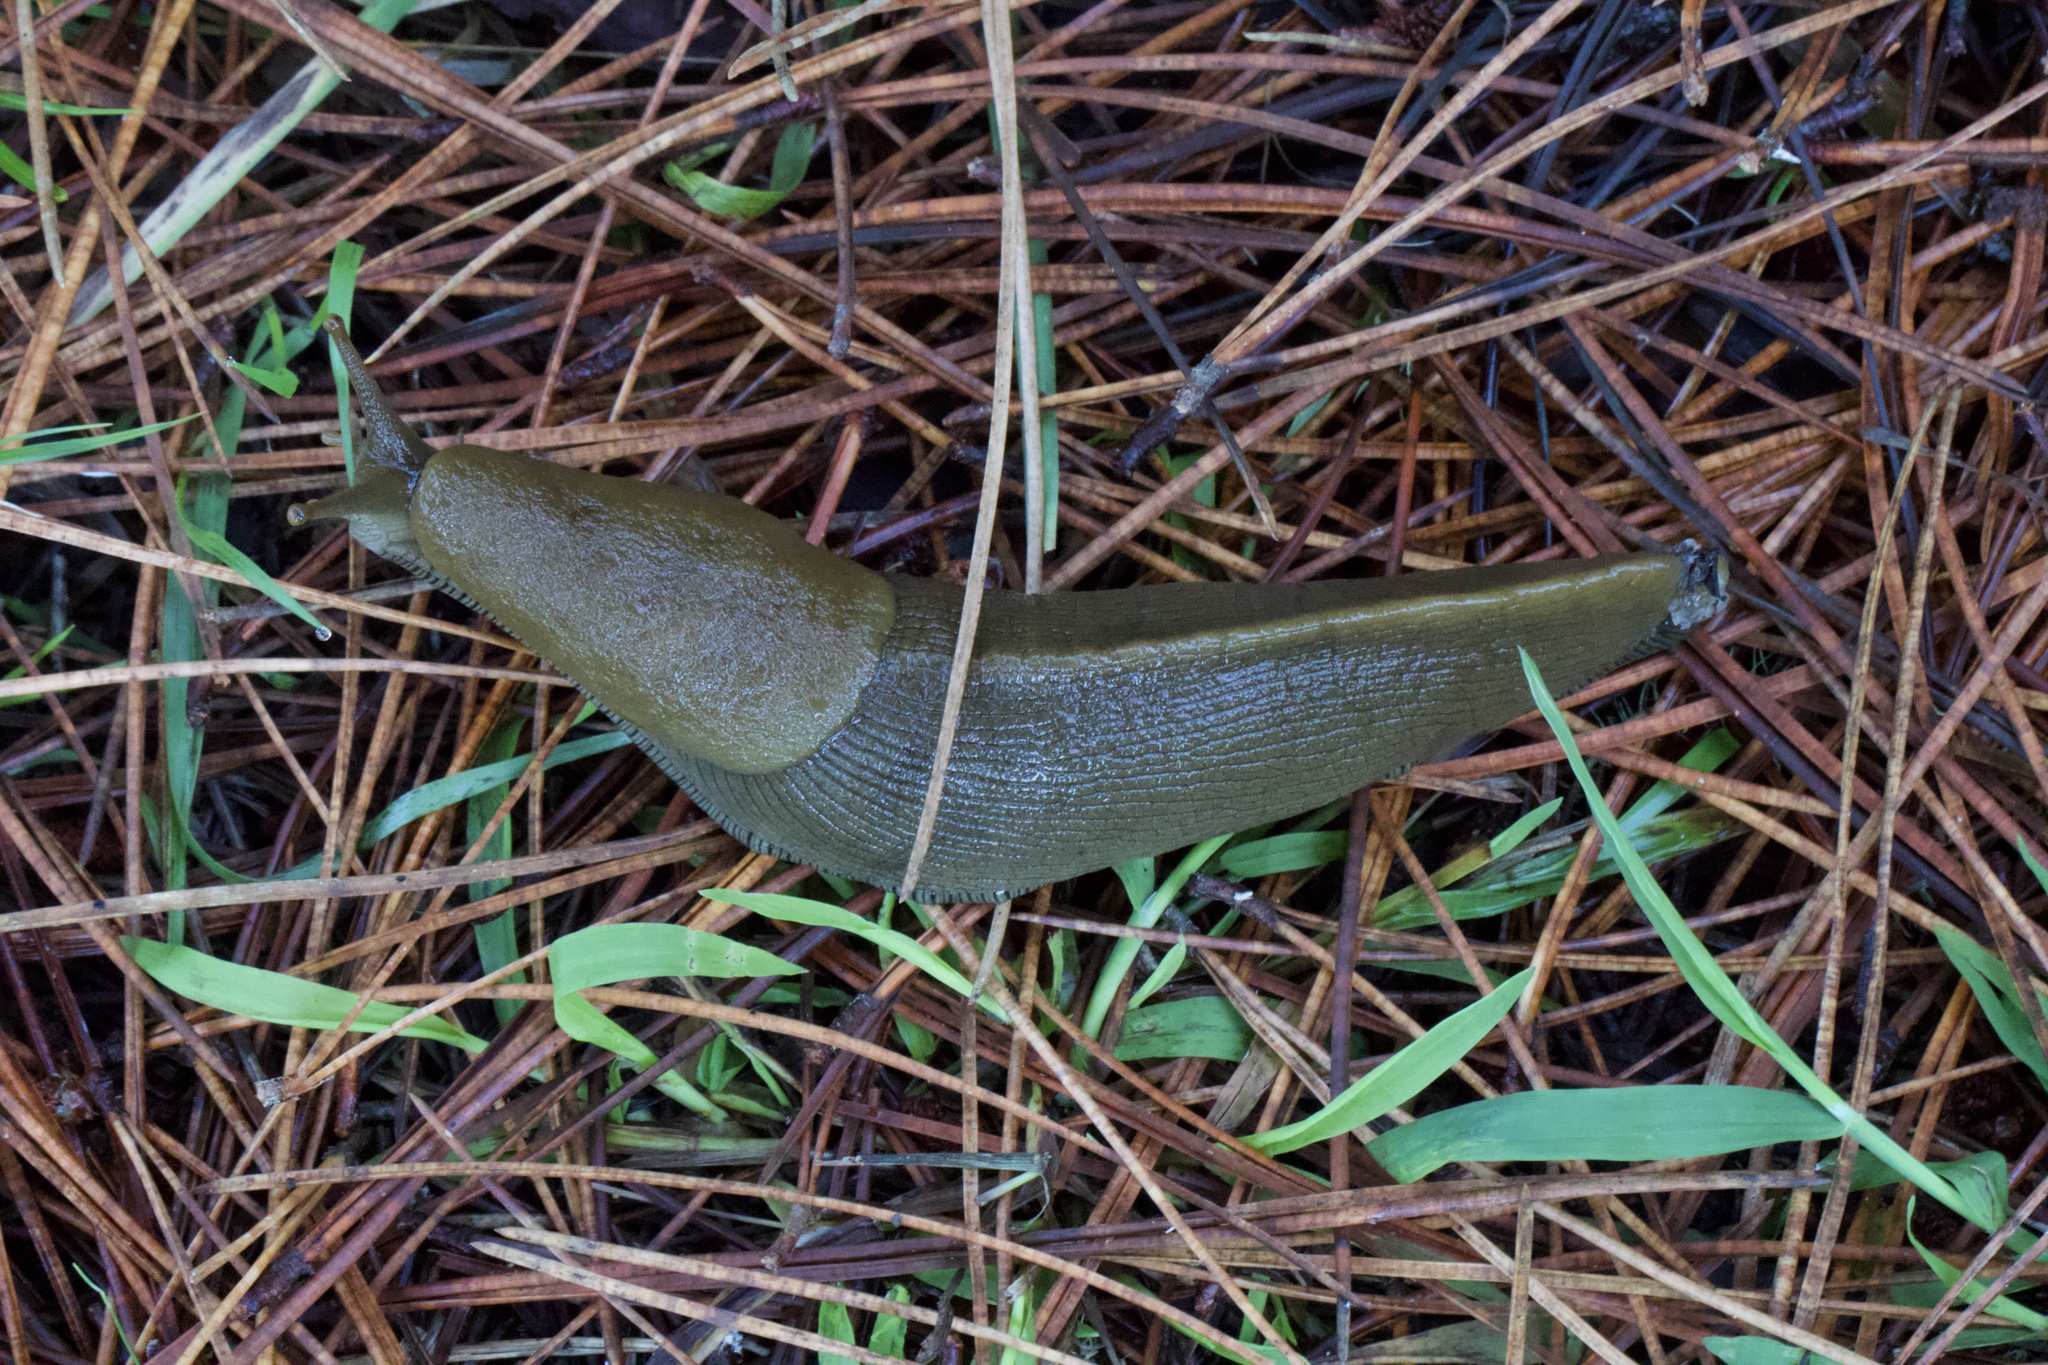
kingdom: Animalia
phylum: Mollusca
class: Gastropoda
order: Stylommatophora
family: Ariolimacidae
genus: Ariolimax
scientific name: Ariolimax buttoni
